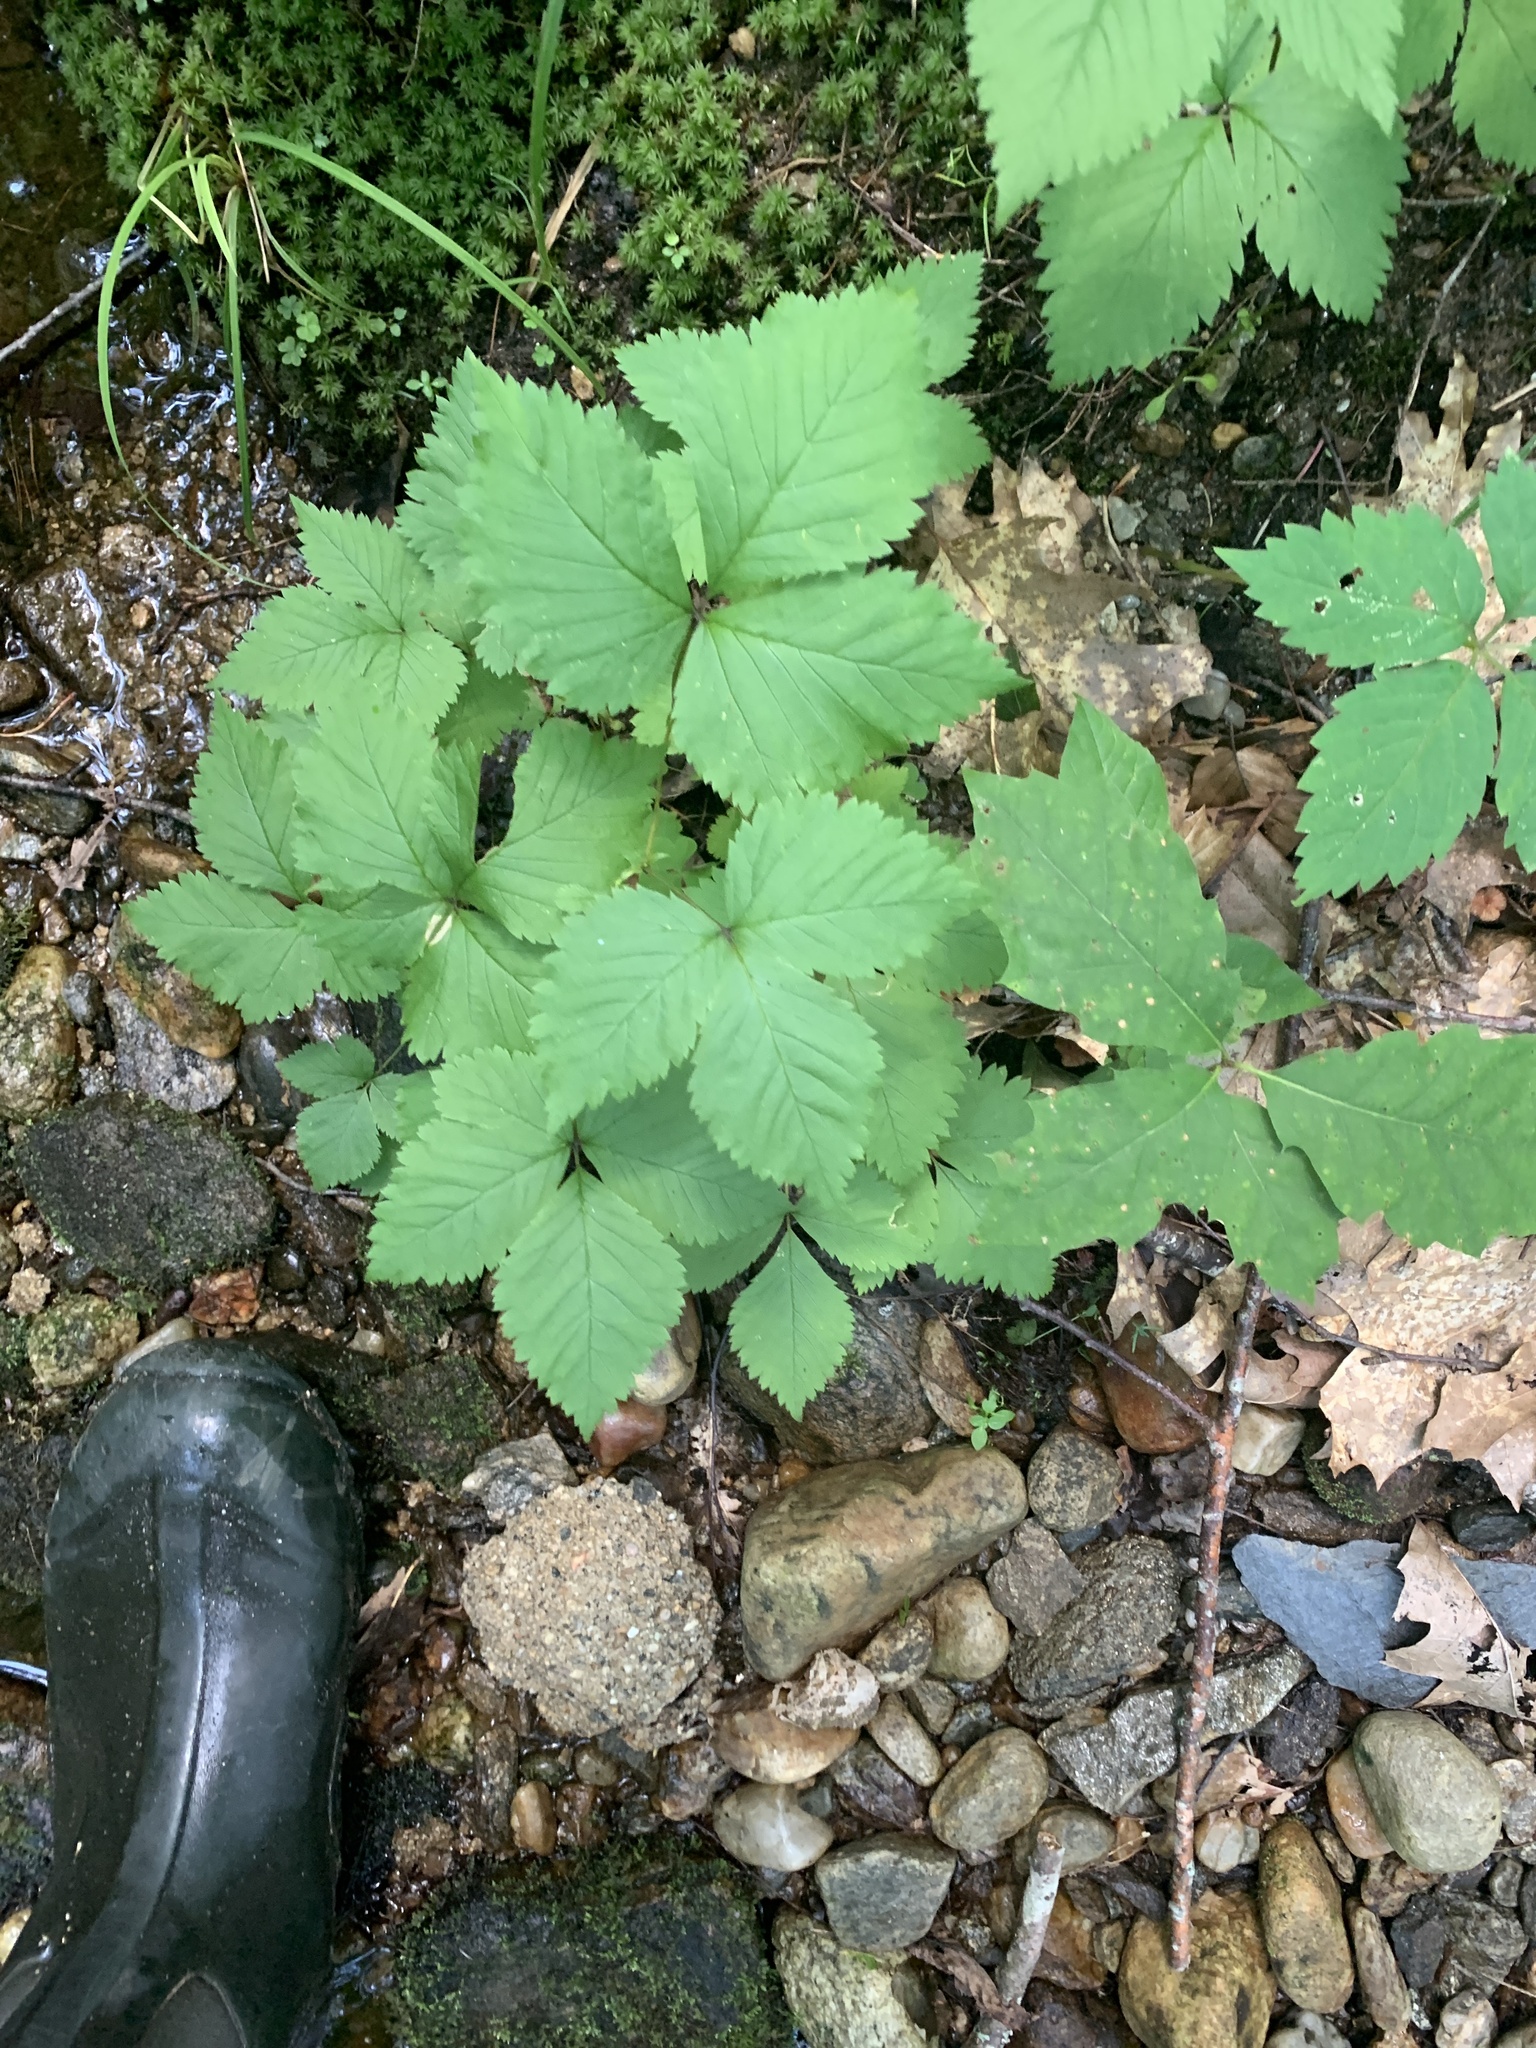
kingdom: Plantae
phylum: Tracheophyta
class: Magnoliopsida
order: Rosales
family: Rosaceae
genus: Rubus
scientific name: Rubus pubescens
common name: Dwarf raspberry
